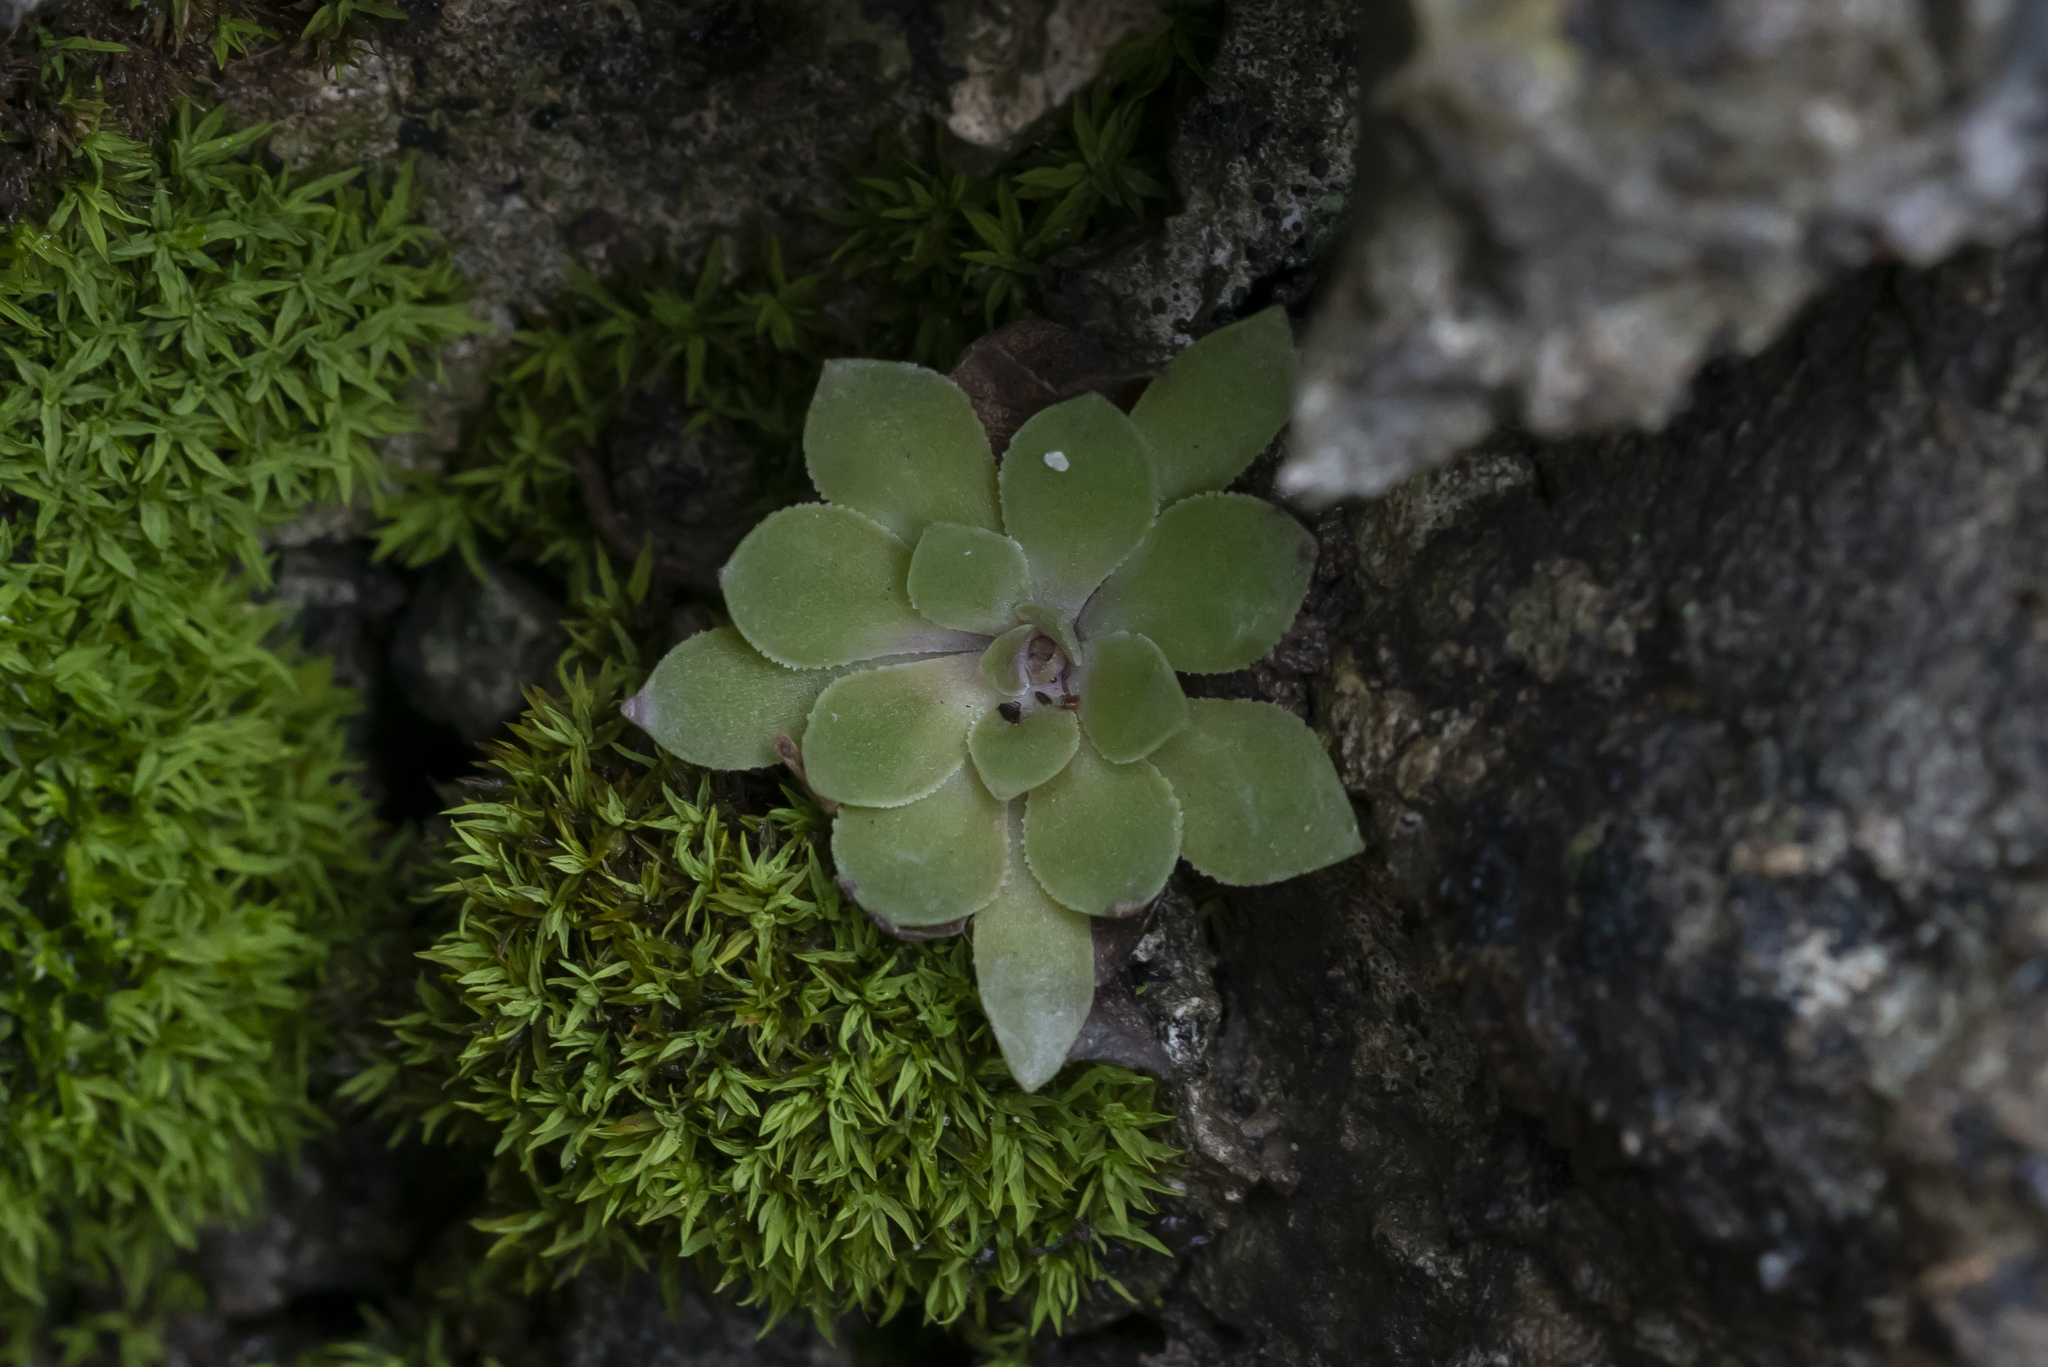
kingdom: Plantae
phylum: Tracheophyta
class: Magnoliopsida
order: Saxifragales
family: Crassulaceae
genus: Rosularia
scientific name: Rosularia serrata
